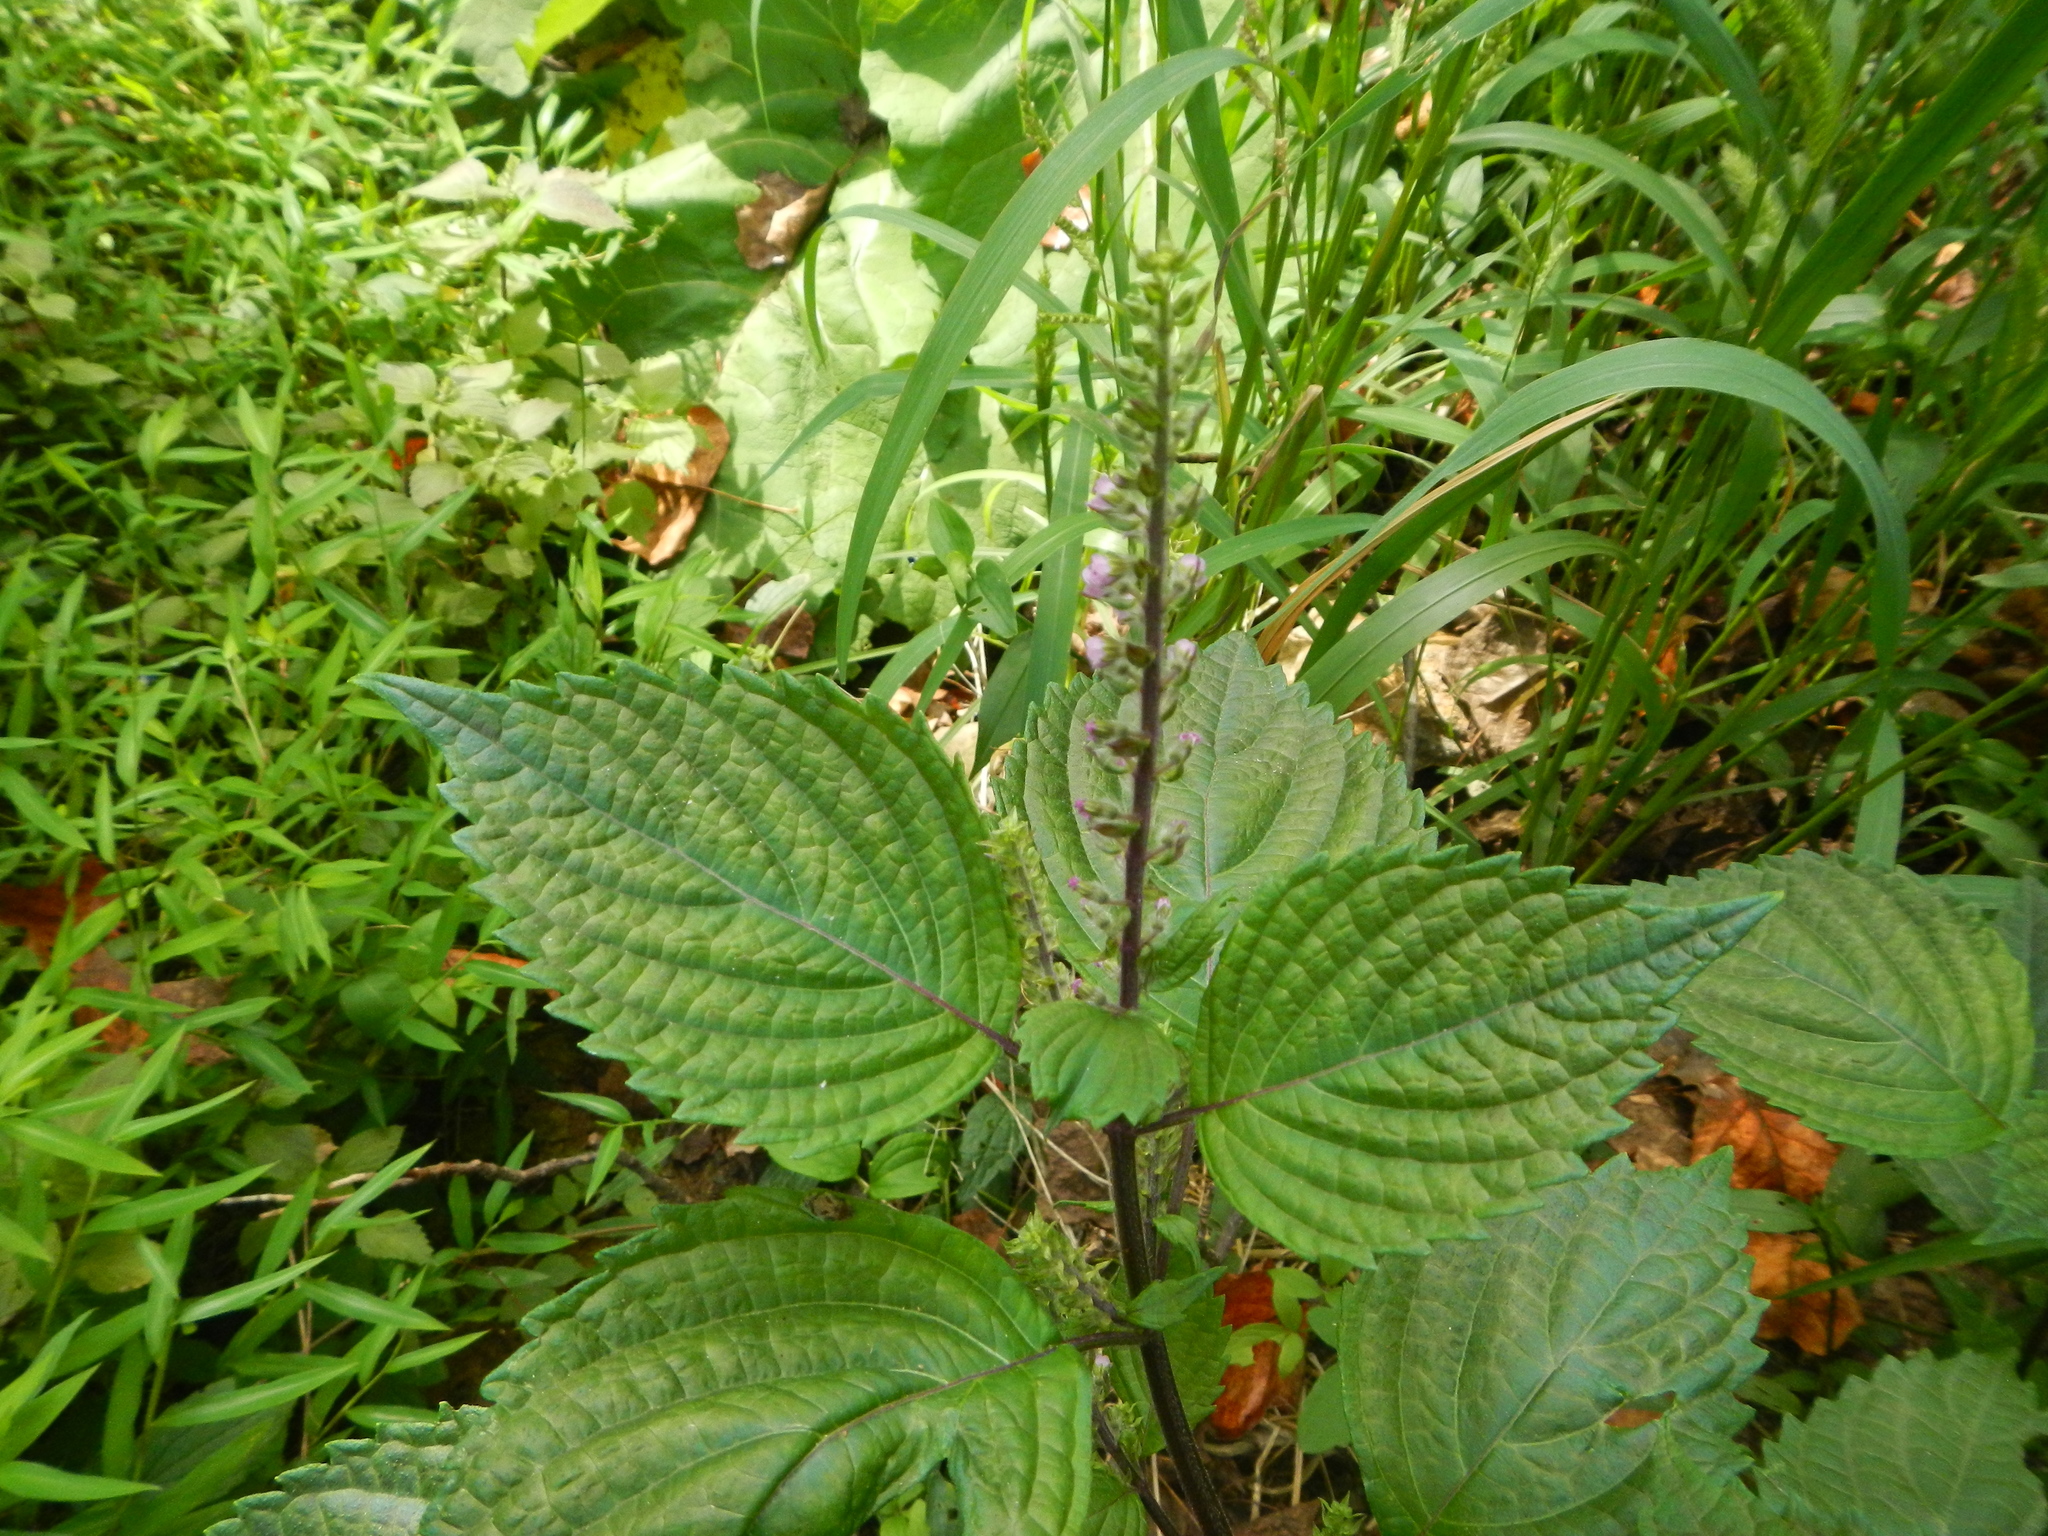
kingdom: Plantae
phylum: Tracheophyta
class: Magnoliopsida
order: Lamiales
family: Lamiaceae
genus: Perilla
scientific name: Perilla frutescens
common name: Perilla
